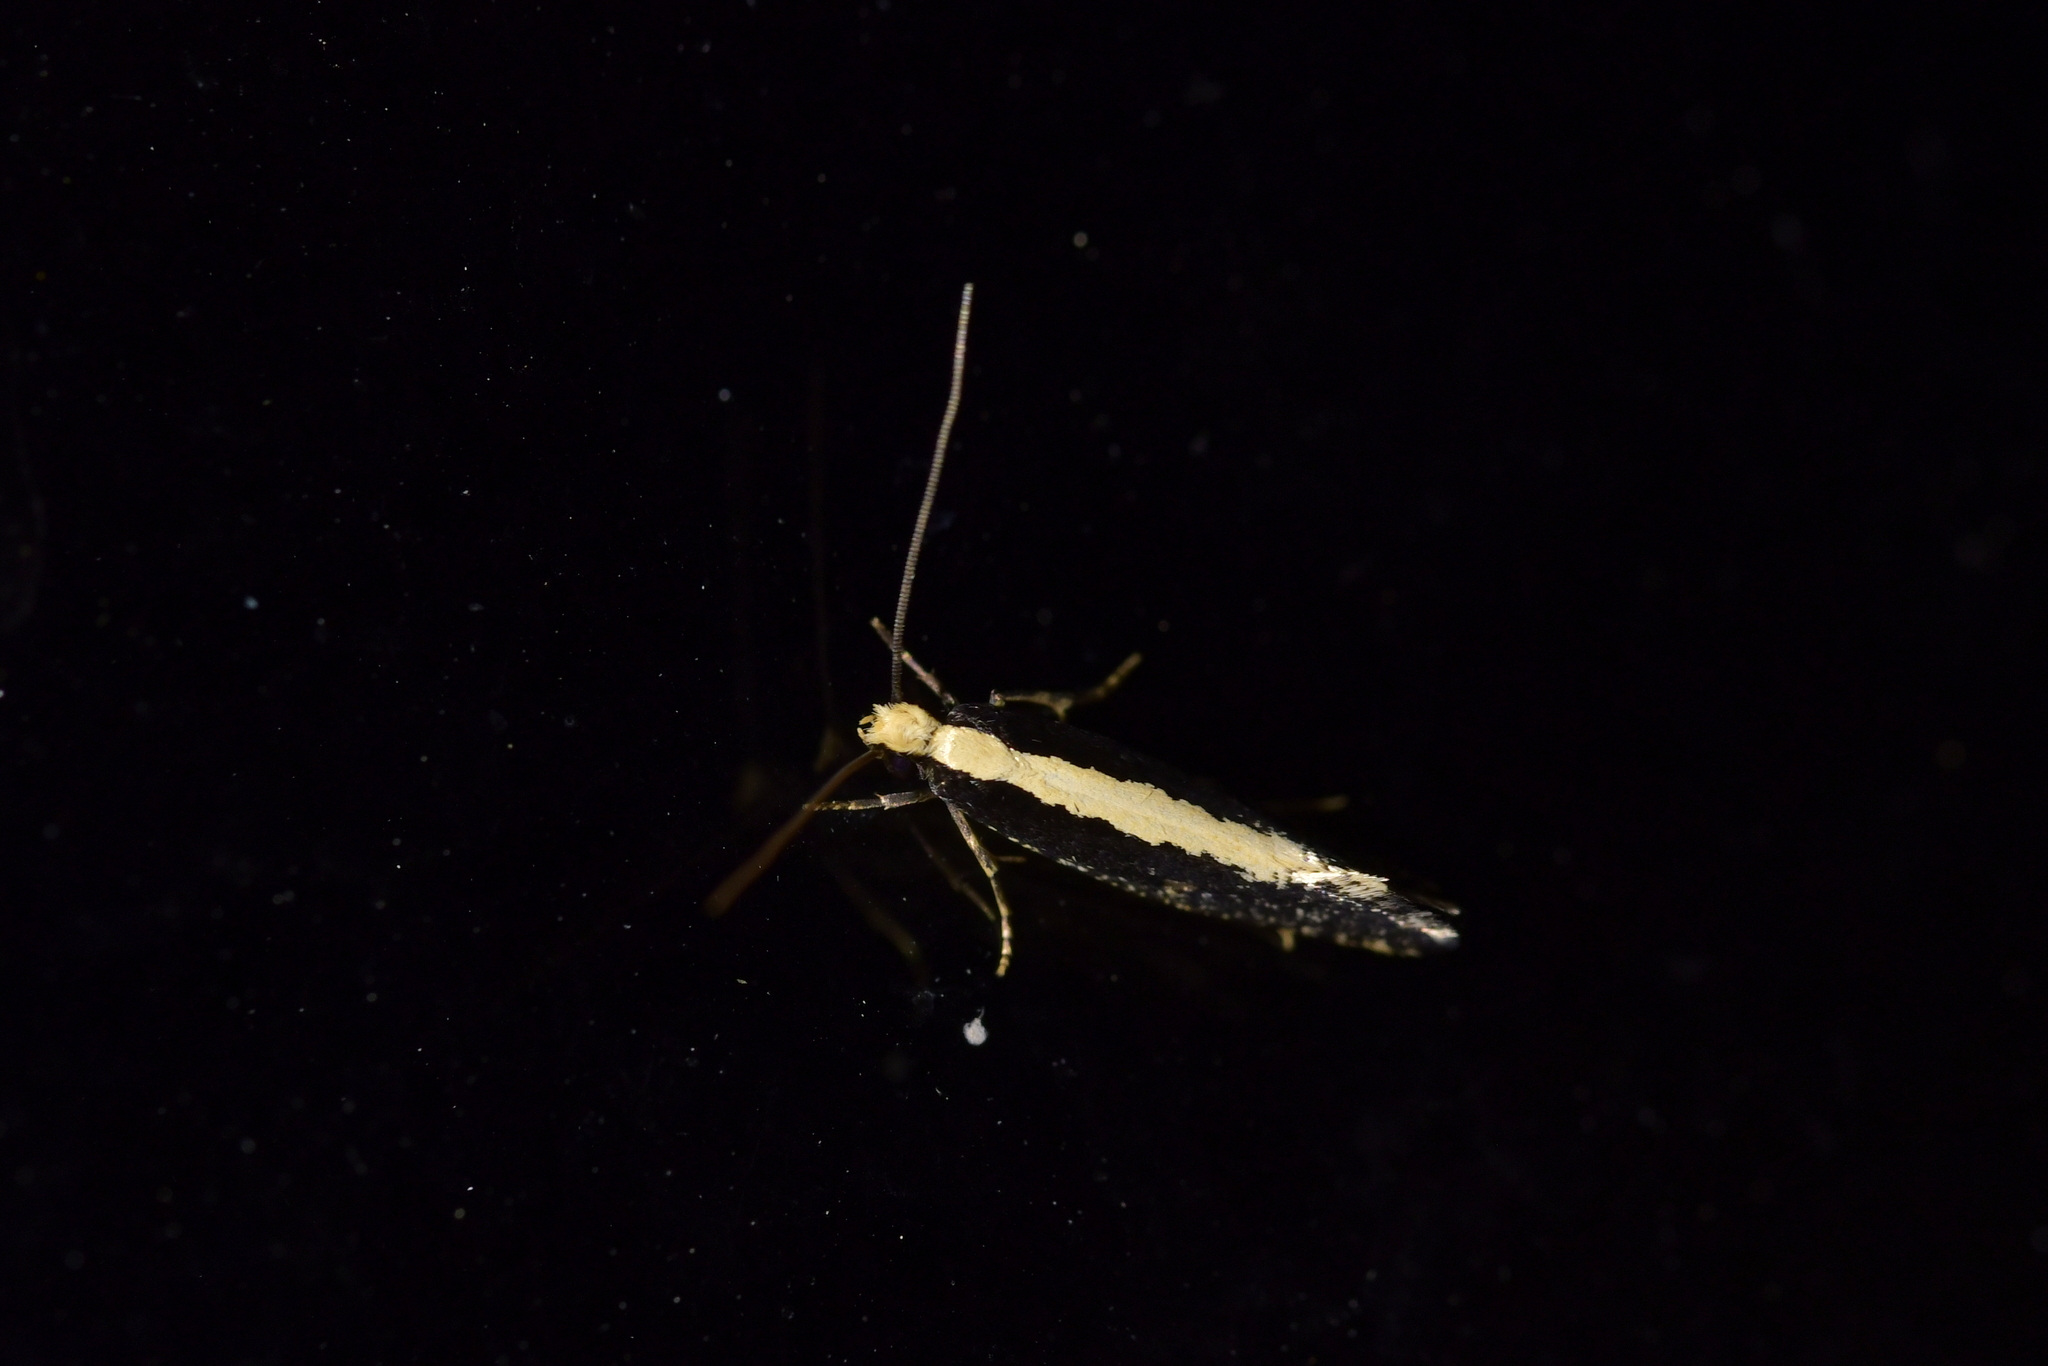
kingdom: Animalia
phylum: Arthropoda
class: Insecta
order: Lepidoptera
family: Tineidae
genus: Monopis
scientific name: Monopis ethelella
